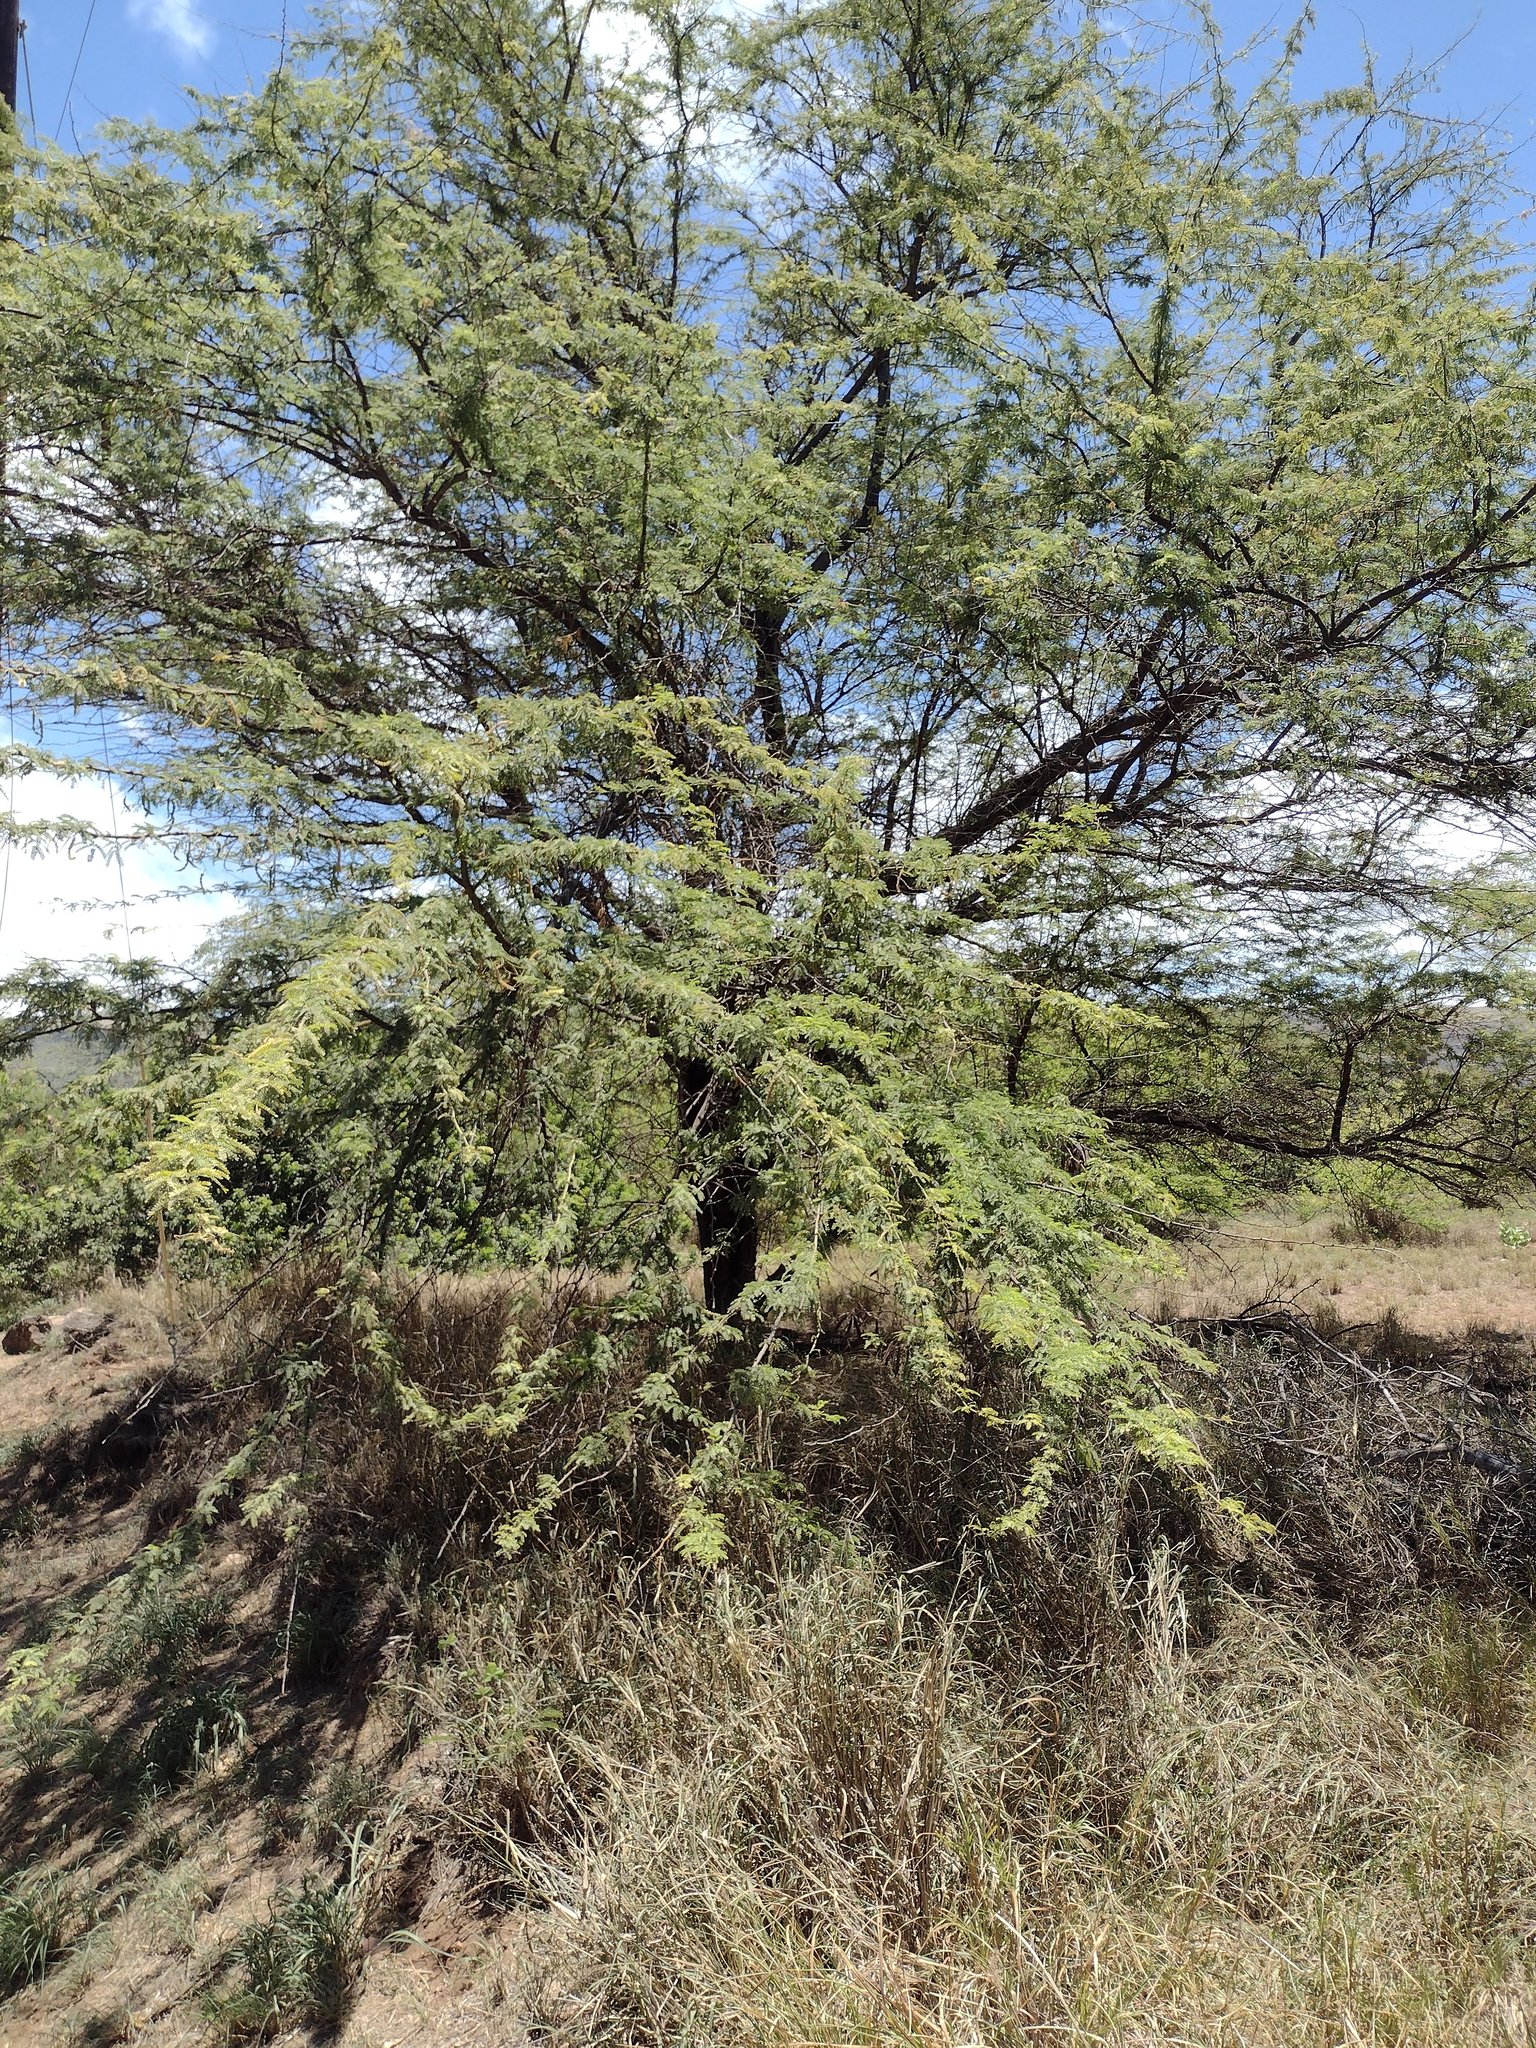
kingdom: Plantae
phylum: Tracheophyta
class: Magnoliopsida
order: Fabales
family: Fabaceae
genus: Prosopis
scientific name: Prosopis pallida
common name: Mesquite
